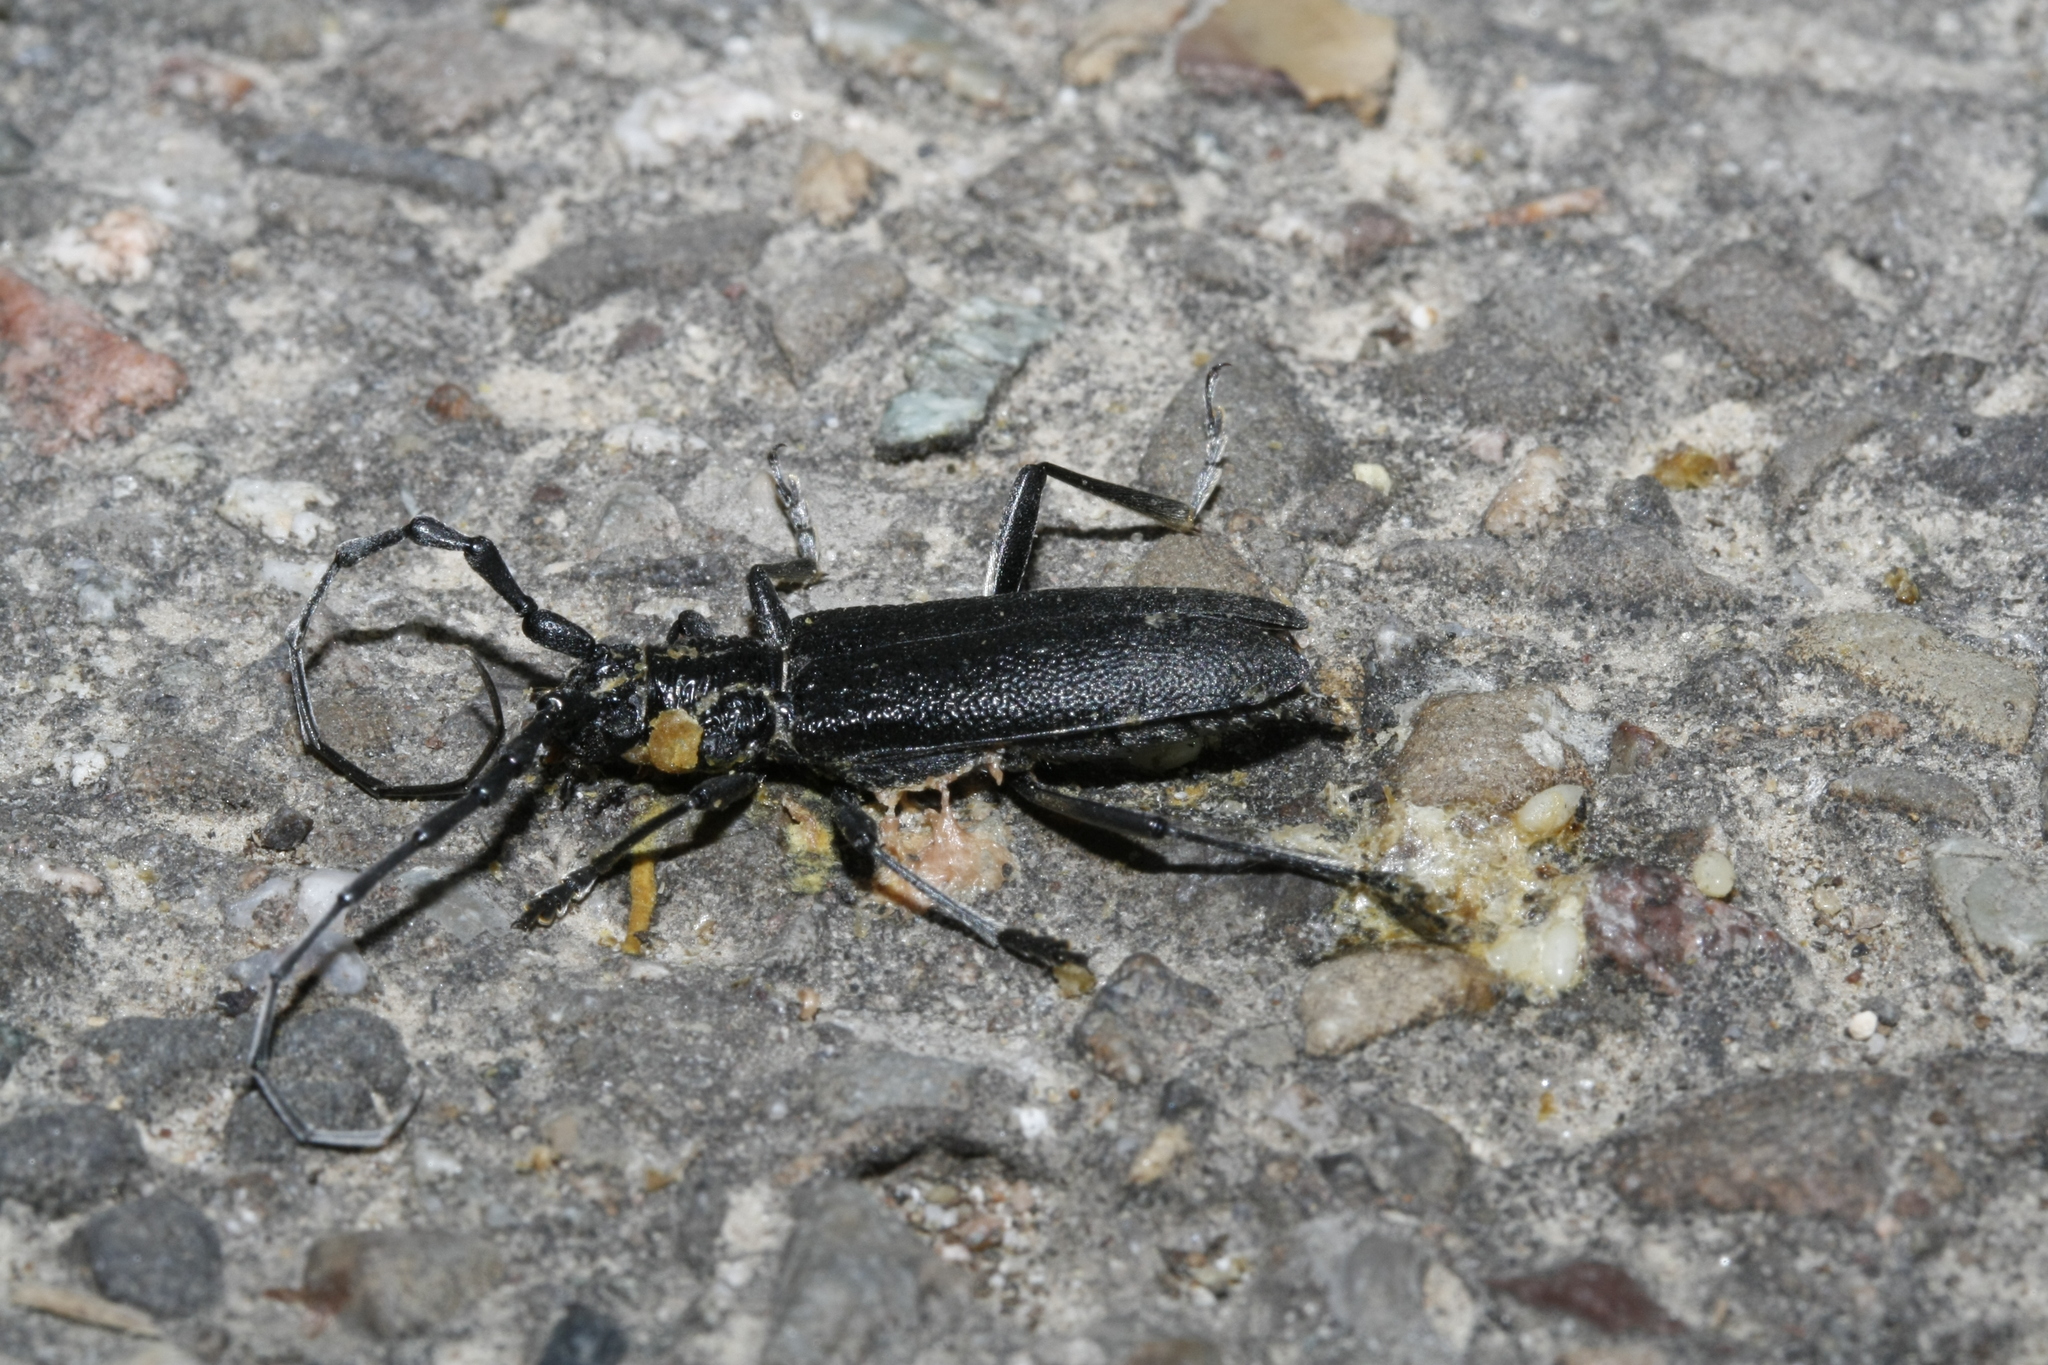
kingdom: Animalia
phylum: Arthropoda
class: Insecta
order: Coleoptera
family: Cerambycidae
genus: Cerambyx
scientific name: Cerambyx scopolii
